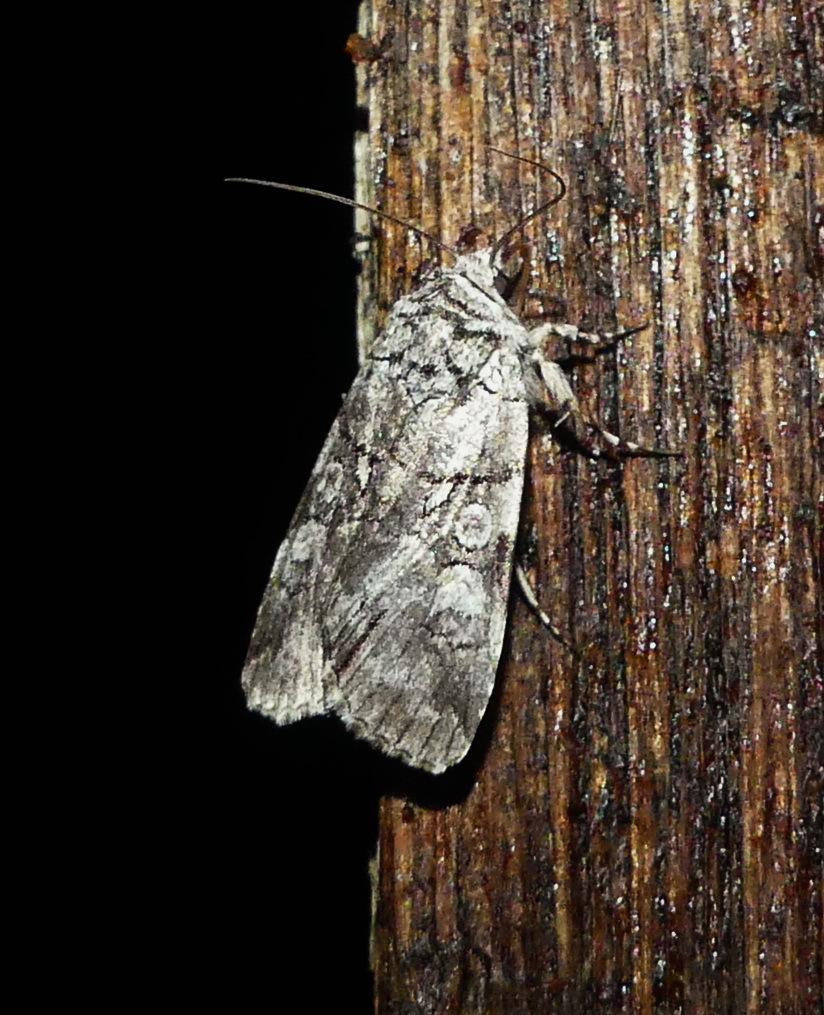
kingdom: Animalia
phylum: Arthropoda
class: Insecta
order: Lepidoptera
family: Noctuidae
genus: Sympistis
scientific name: Sympistis chionanthi
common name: Fringe-tree sallow
